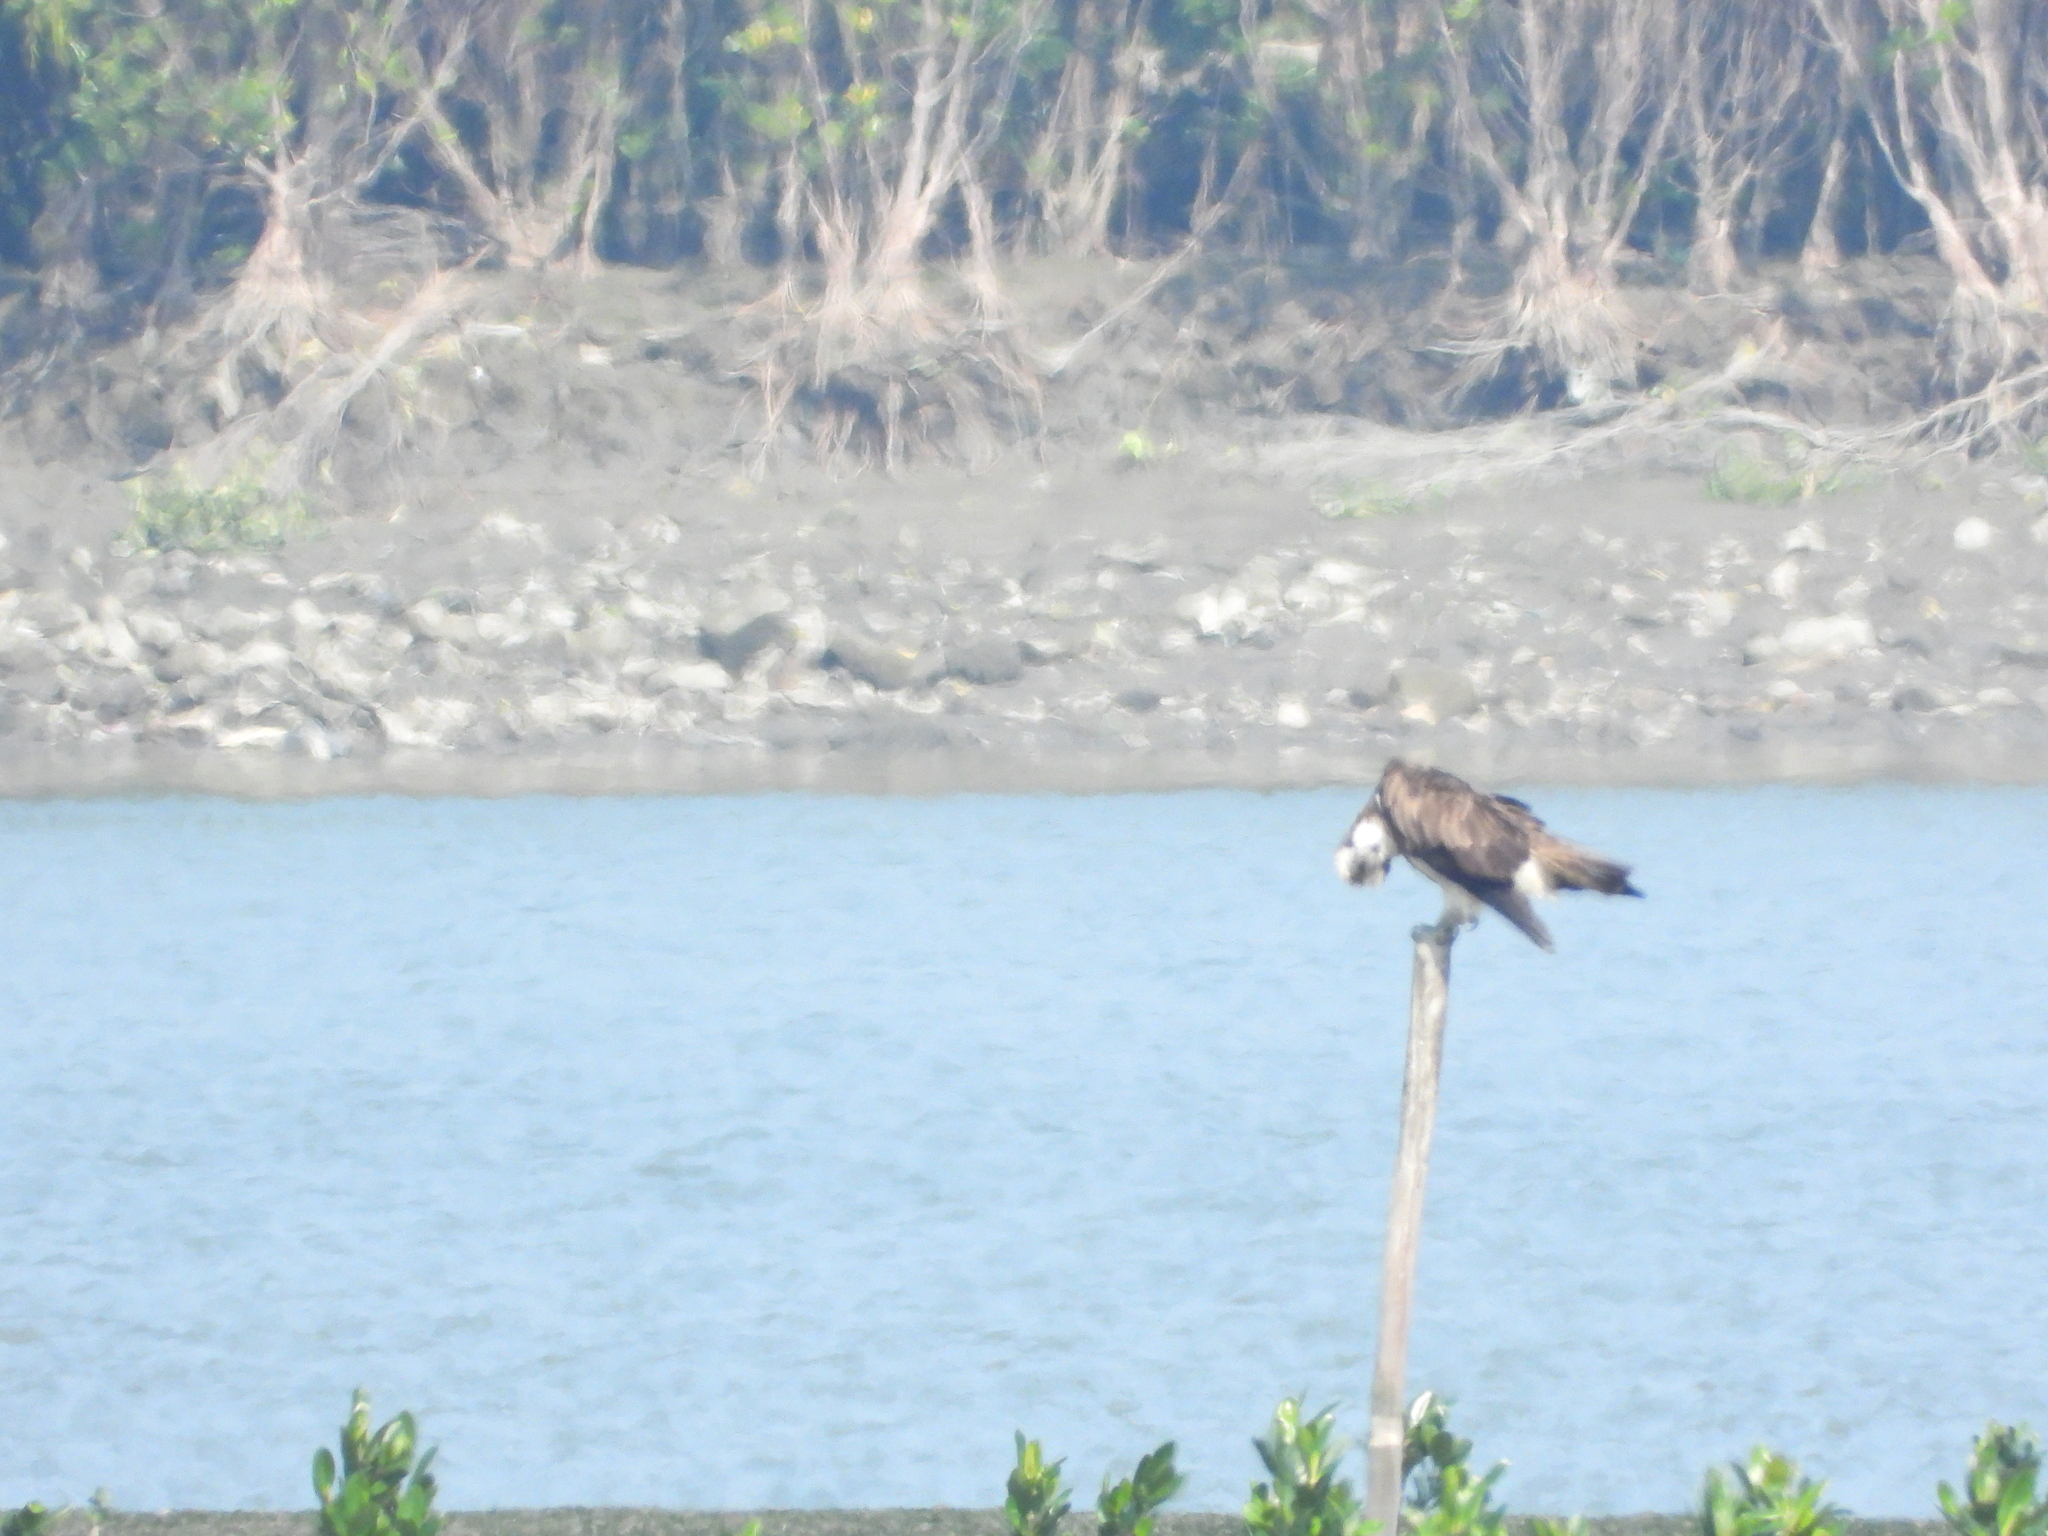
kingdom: Animalia
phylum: Chordata
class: Aves
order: Accipitriformes
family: Pandionidae
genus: Pandion
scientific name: Pandion haliaetus
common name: Osprey
